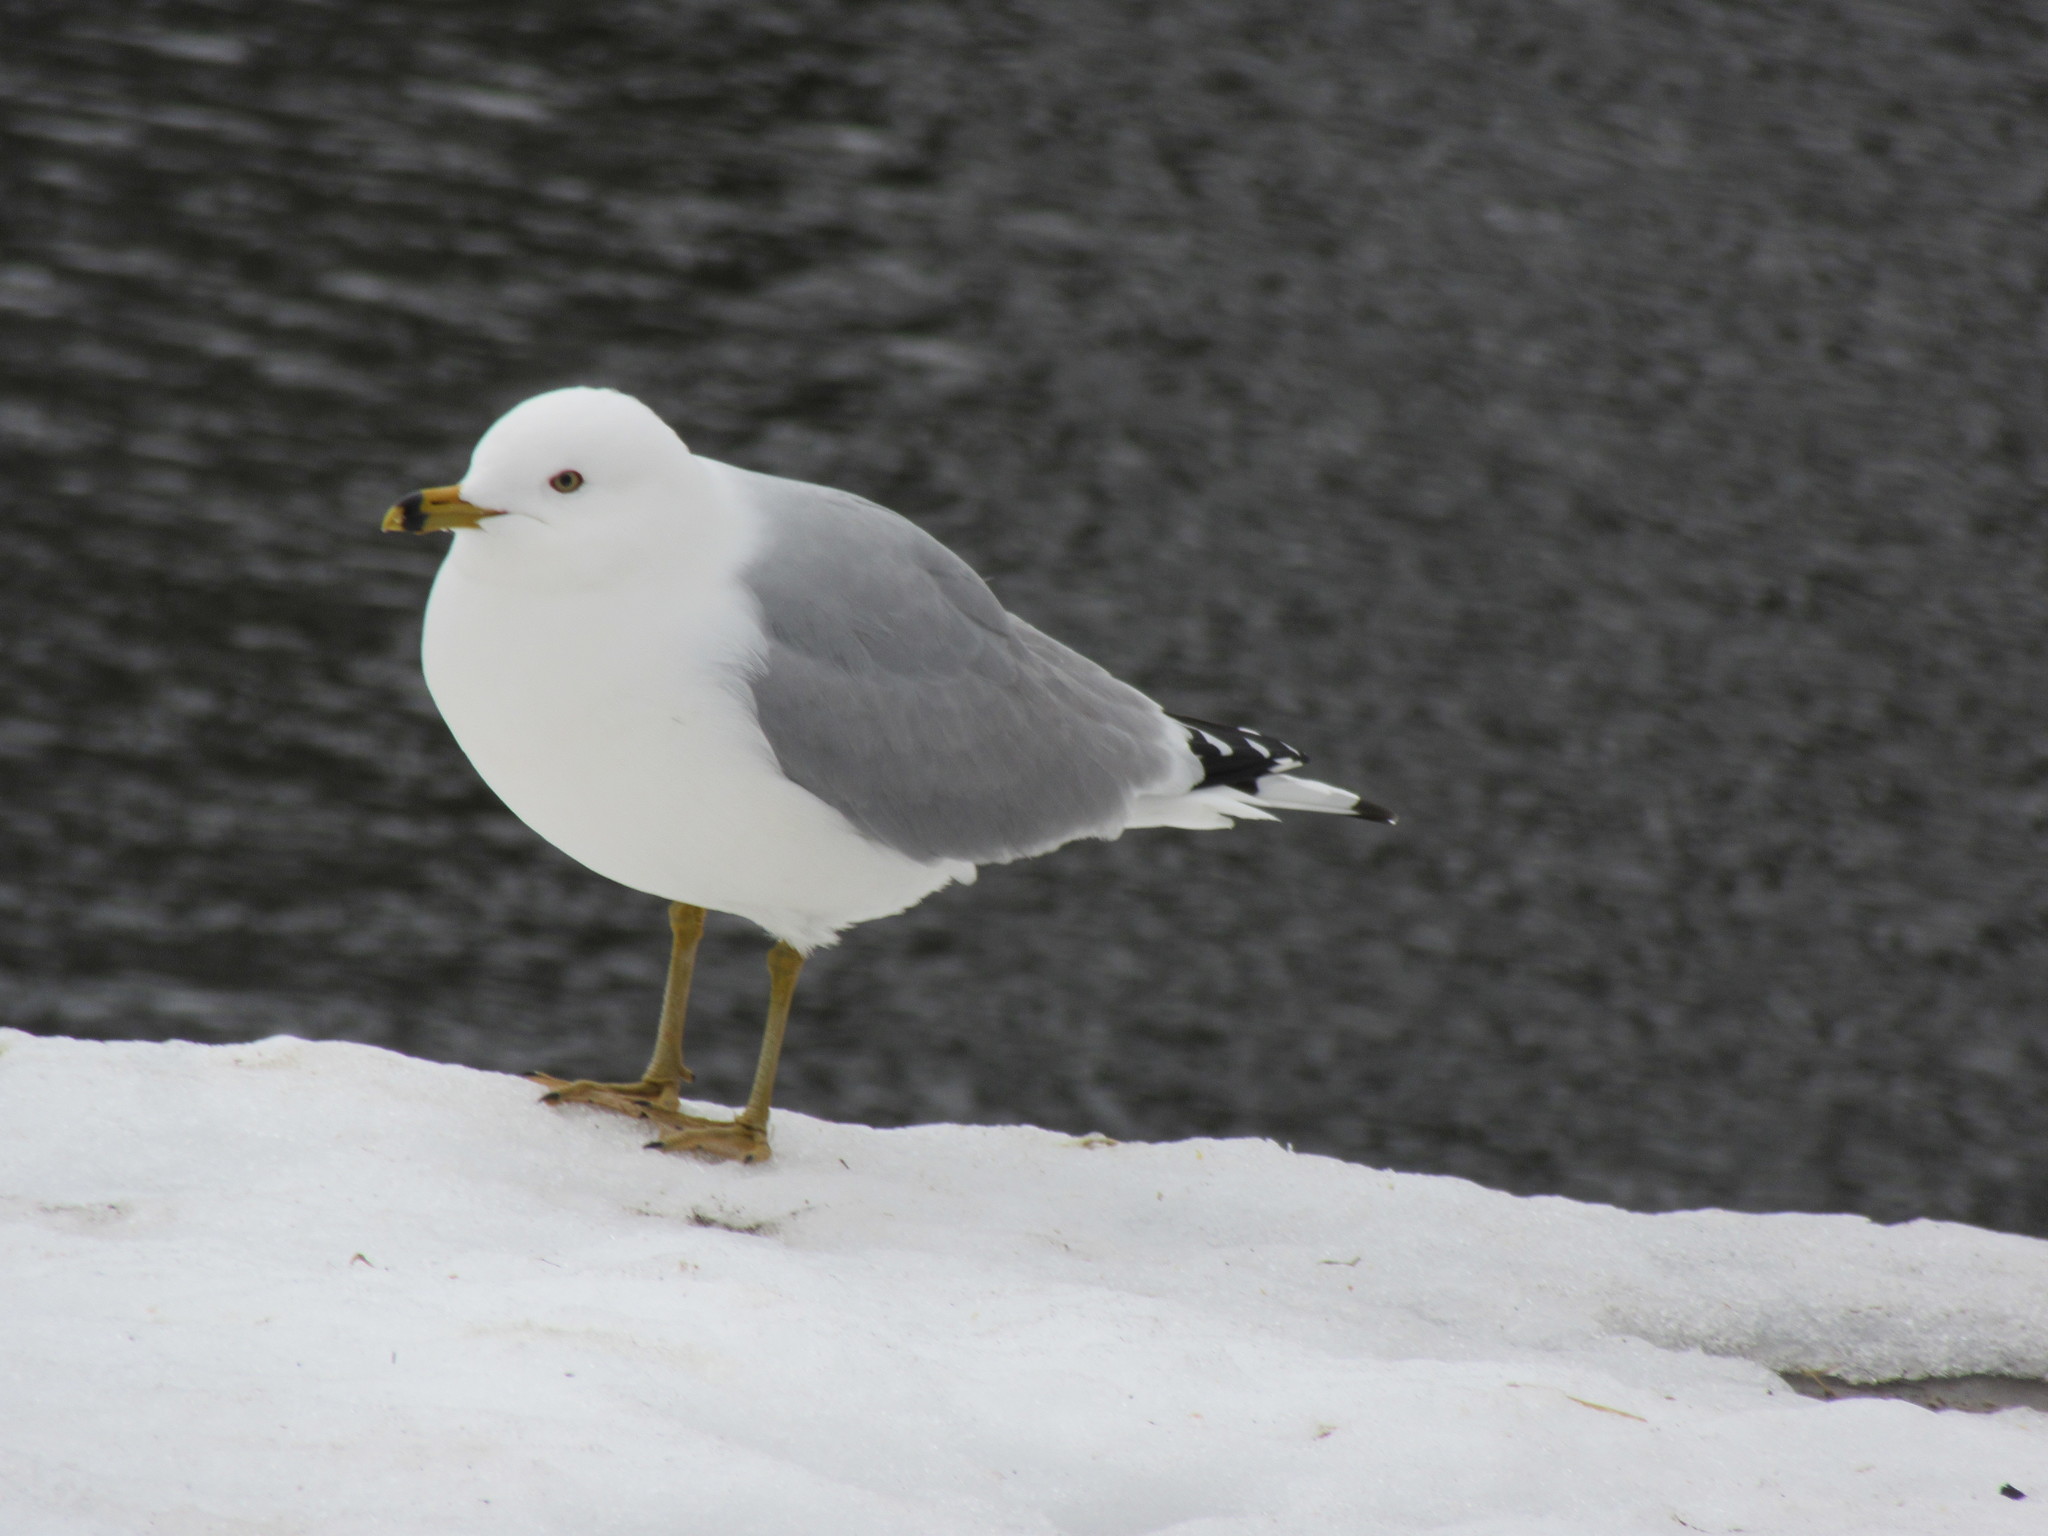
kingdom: Animalia
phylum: Chordata
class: Aves
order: Charadriiformes
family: Laridae
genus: Larus
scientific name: Larus delawarensis
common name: Ring-billed gull
